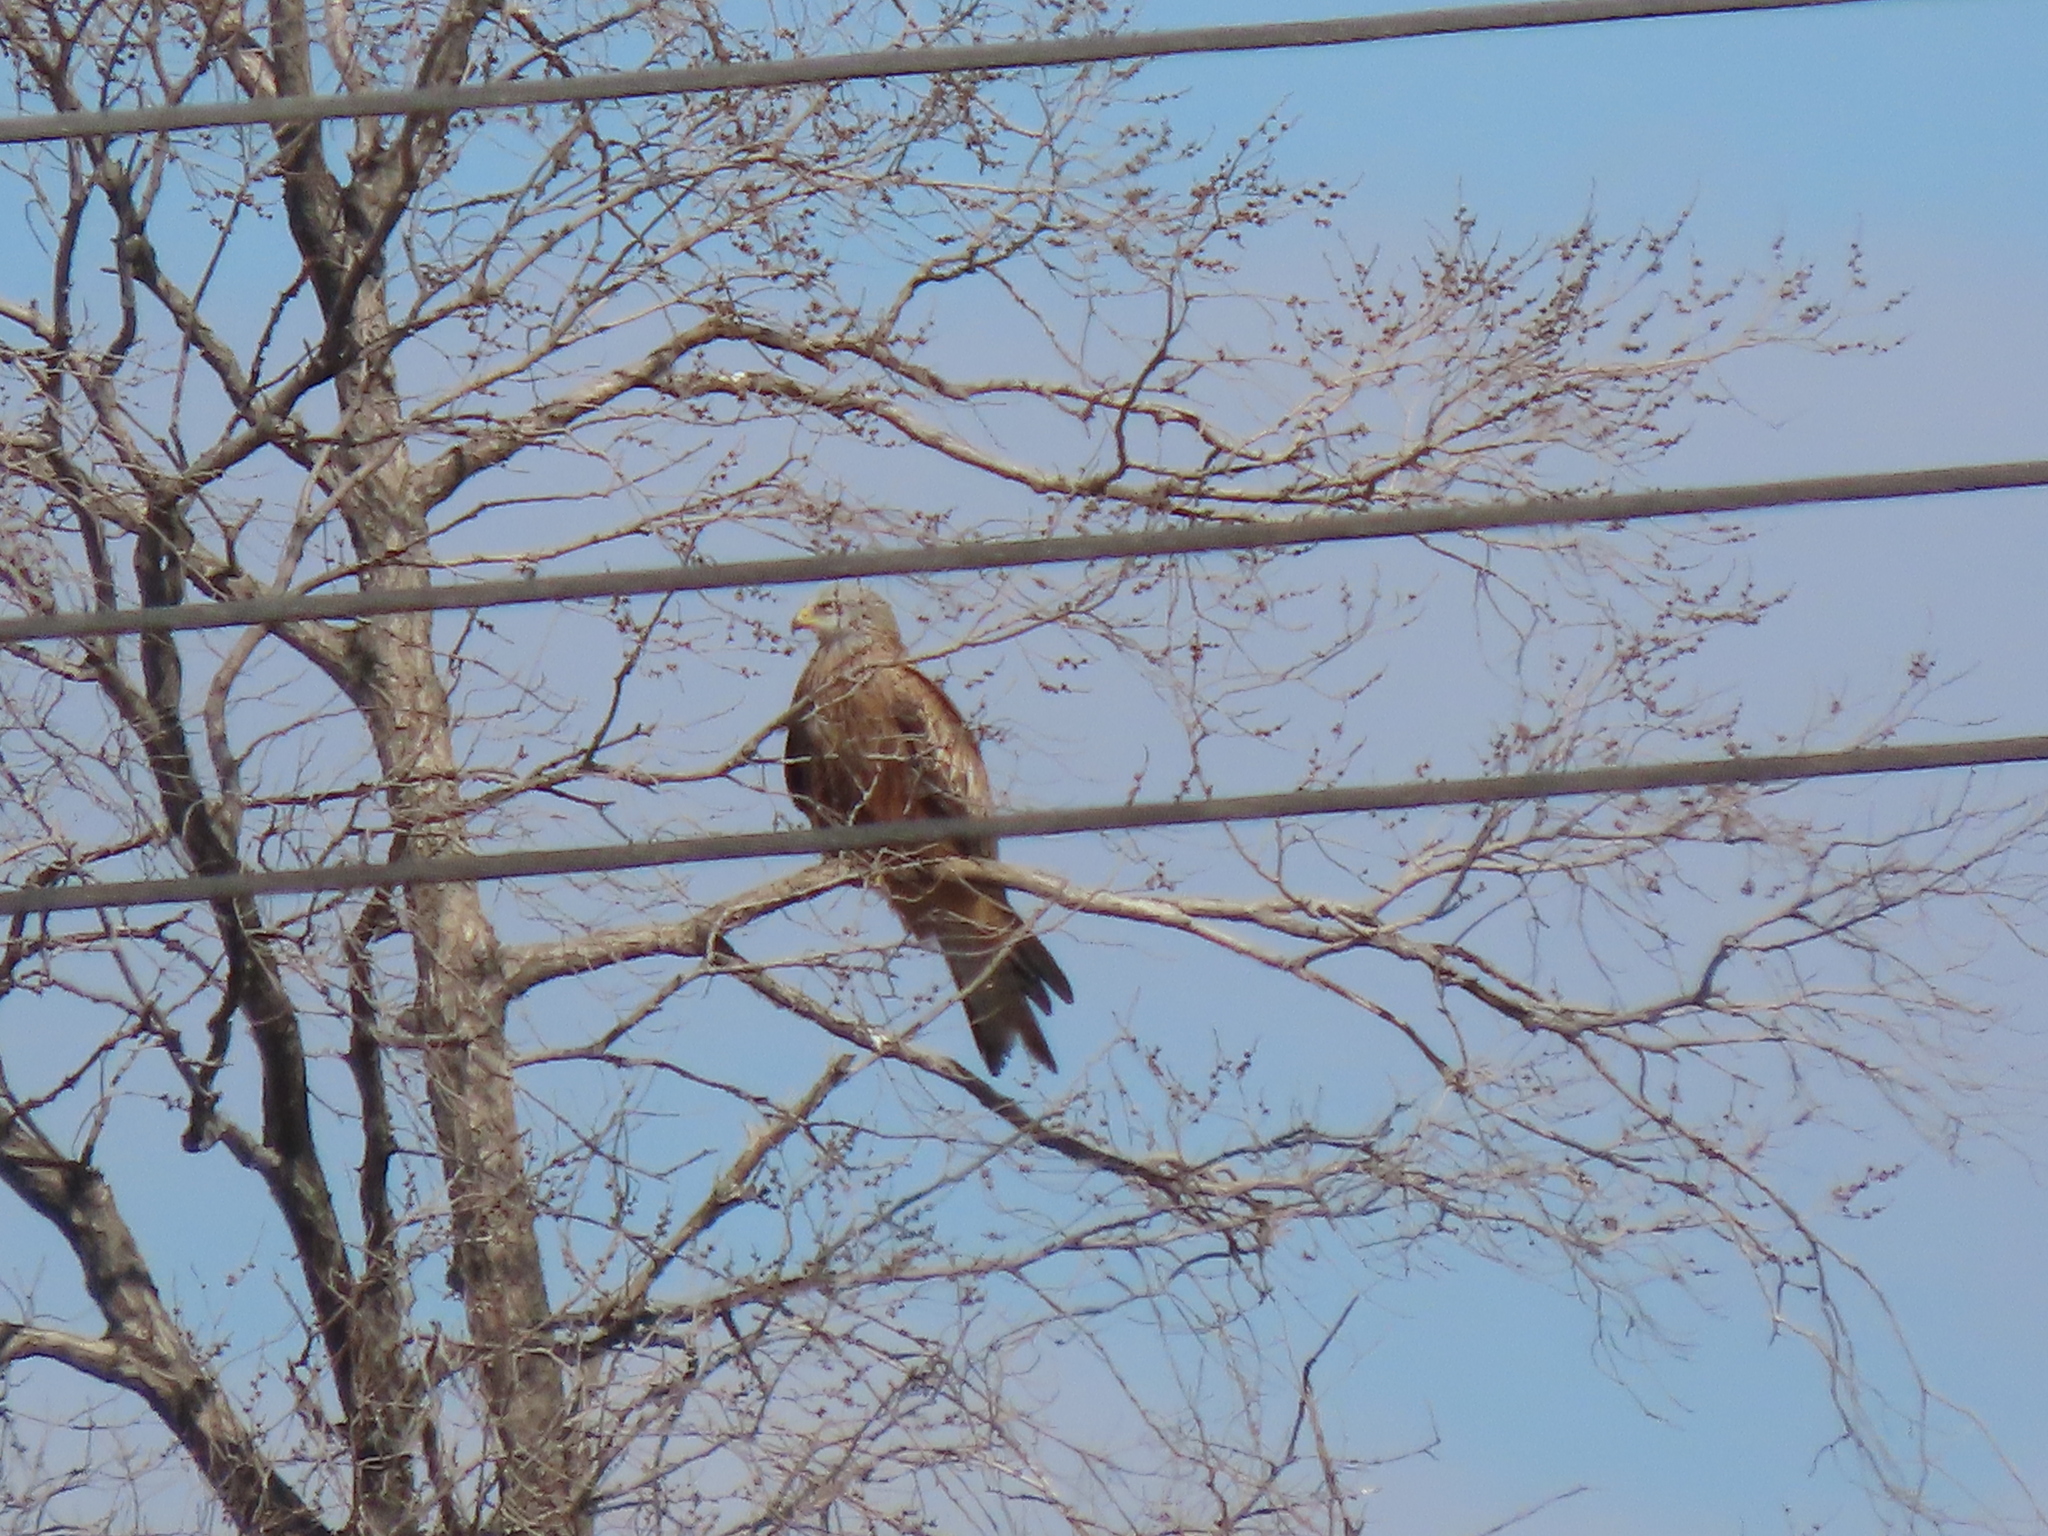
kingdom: Animalia
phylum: Chordata
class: Aves
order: Accipitriformes
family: Accipitridae
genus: Milvus
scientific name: Milvus milvus
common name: Red kite
